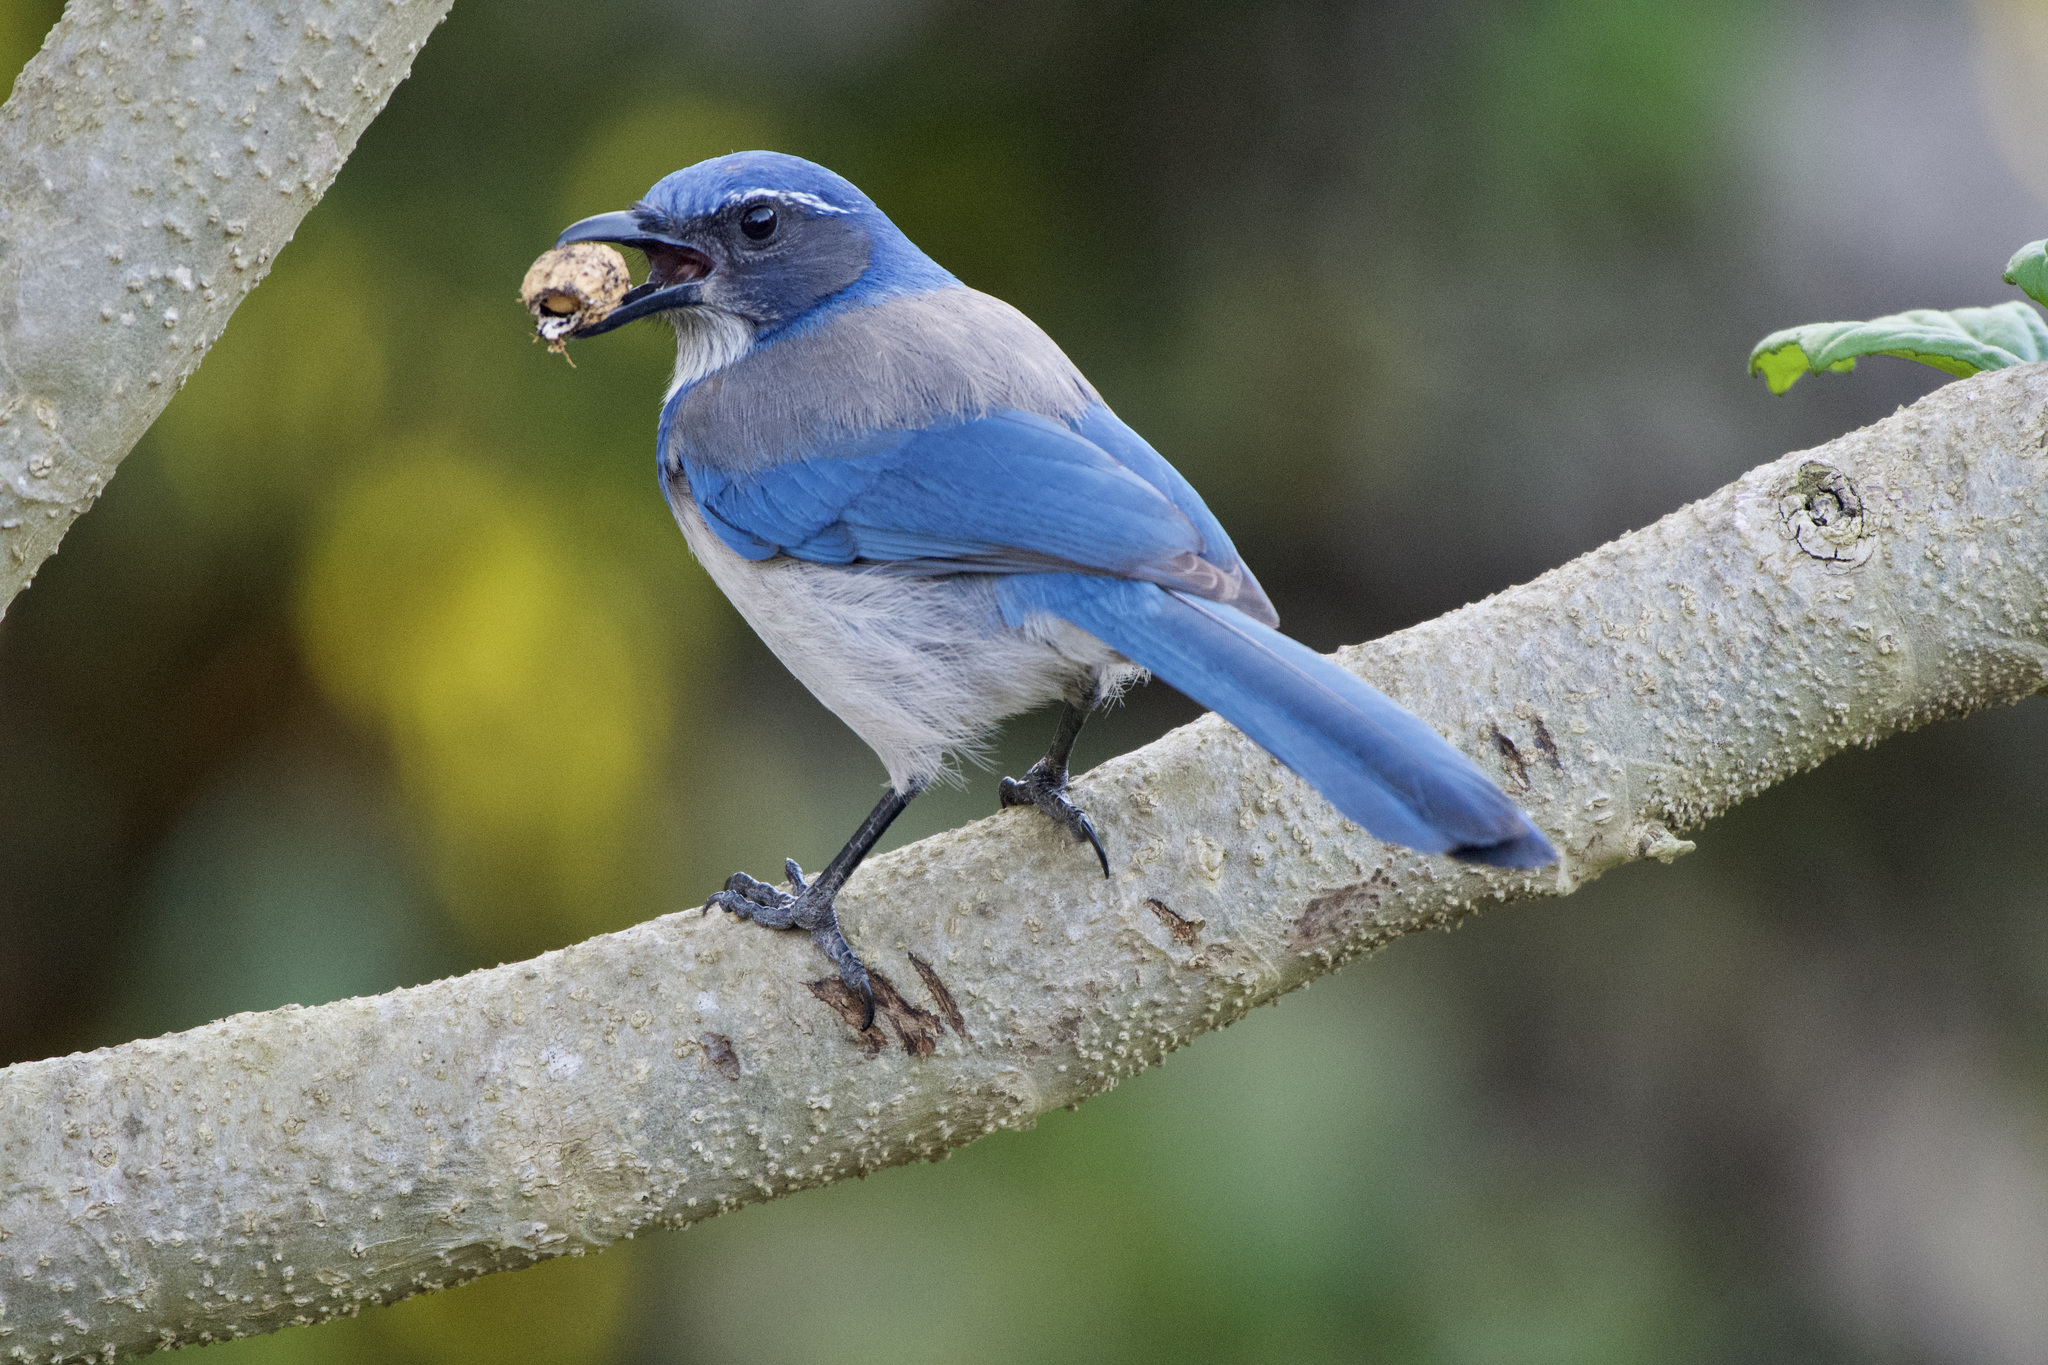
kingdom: Animalia
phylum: Chordata
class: Aves
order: Passeriformes
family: Corvidae
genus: Aphelocoma
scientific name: Aphelocoma californica
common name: California scrub-jay
